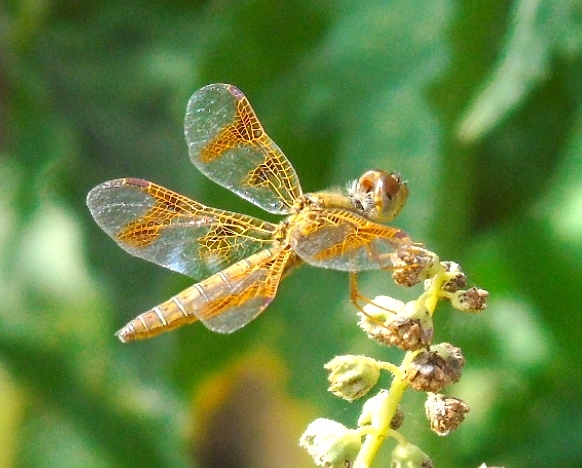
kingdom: Animalia
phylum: Arthropoda
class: Insecta
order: Odonata
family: Libellulidae
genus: Perithemis
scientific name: Perithemis intensa
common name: Mexican amberwing
